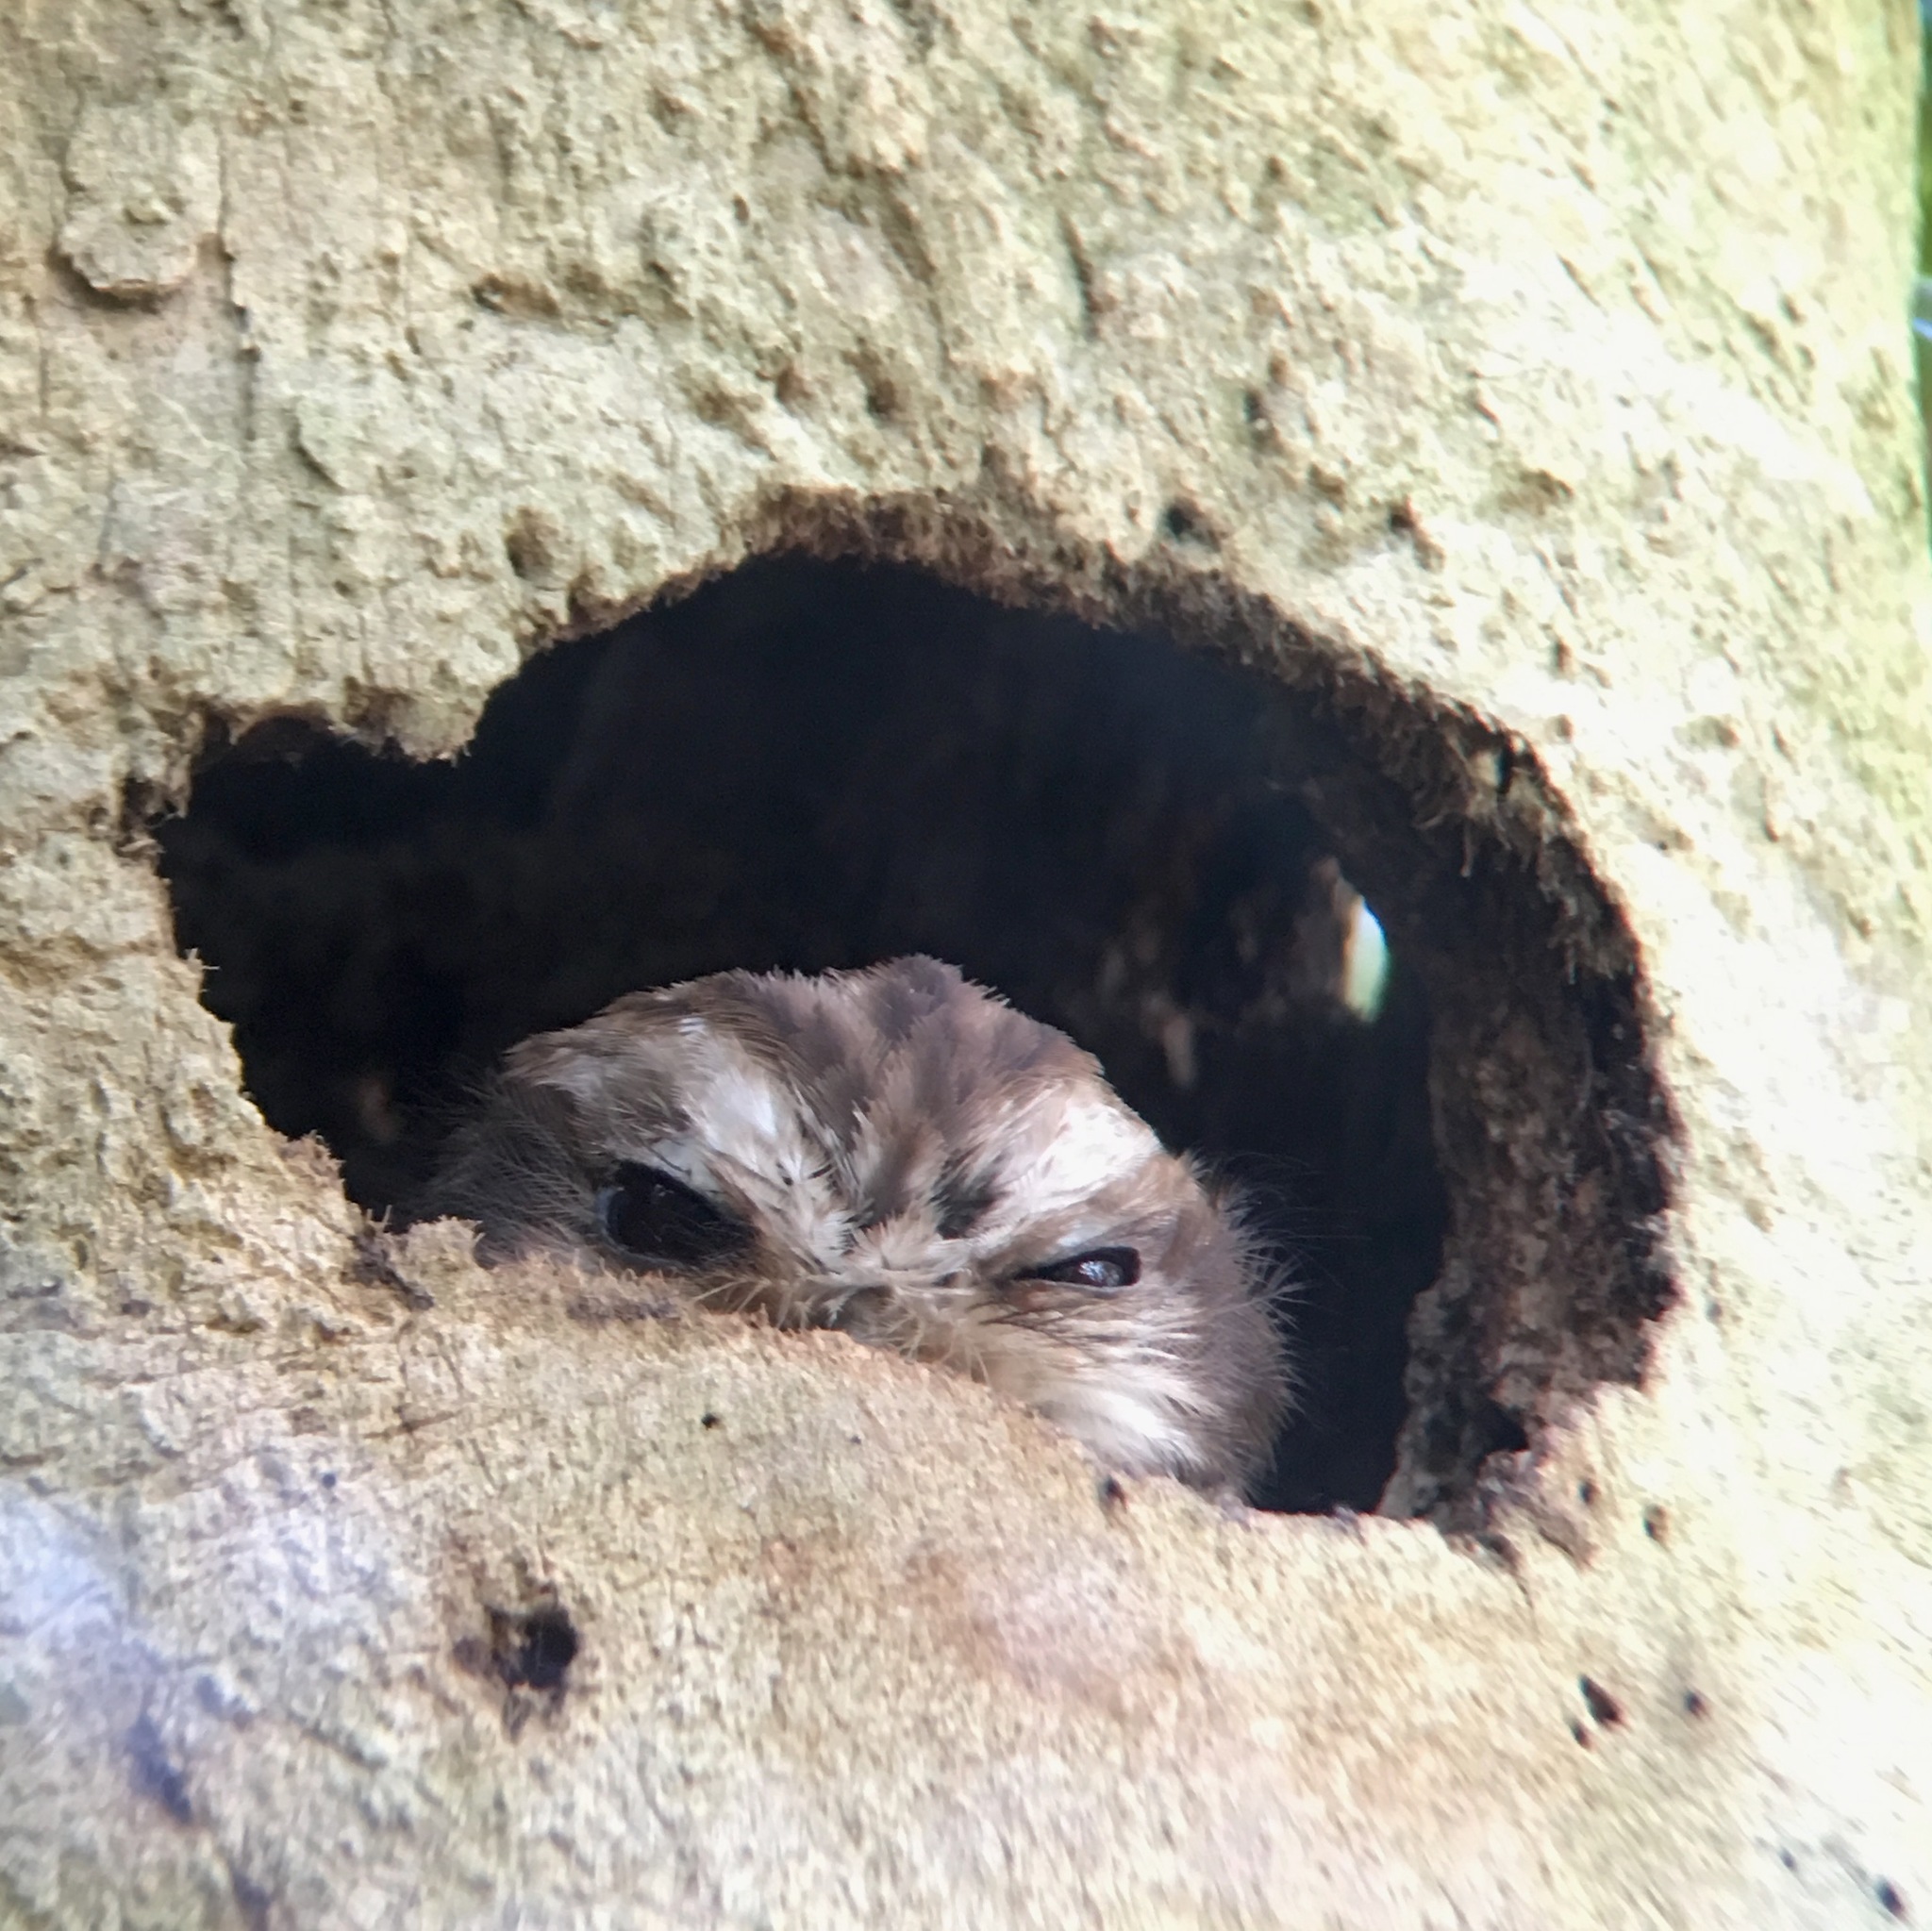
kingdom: Animalia
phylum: Chordata
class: Aves
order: Strigiformes
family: Strigidae
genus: Margarobyas
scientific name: Margarobyas lawrencii
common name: Bare-legged owl
